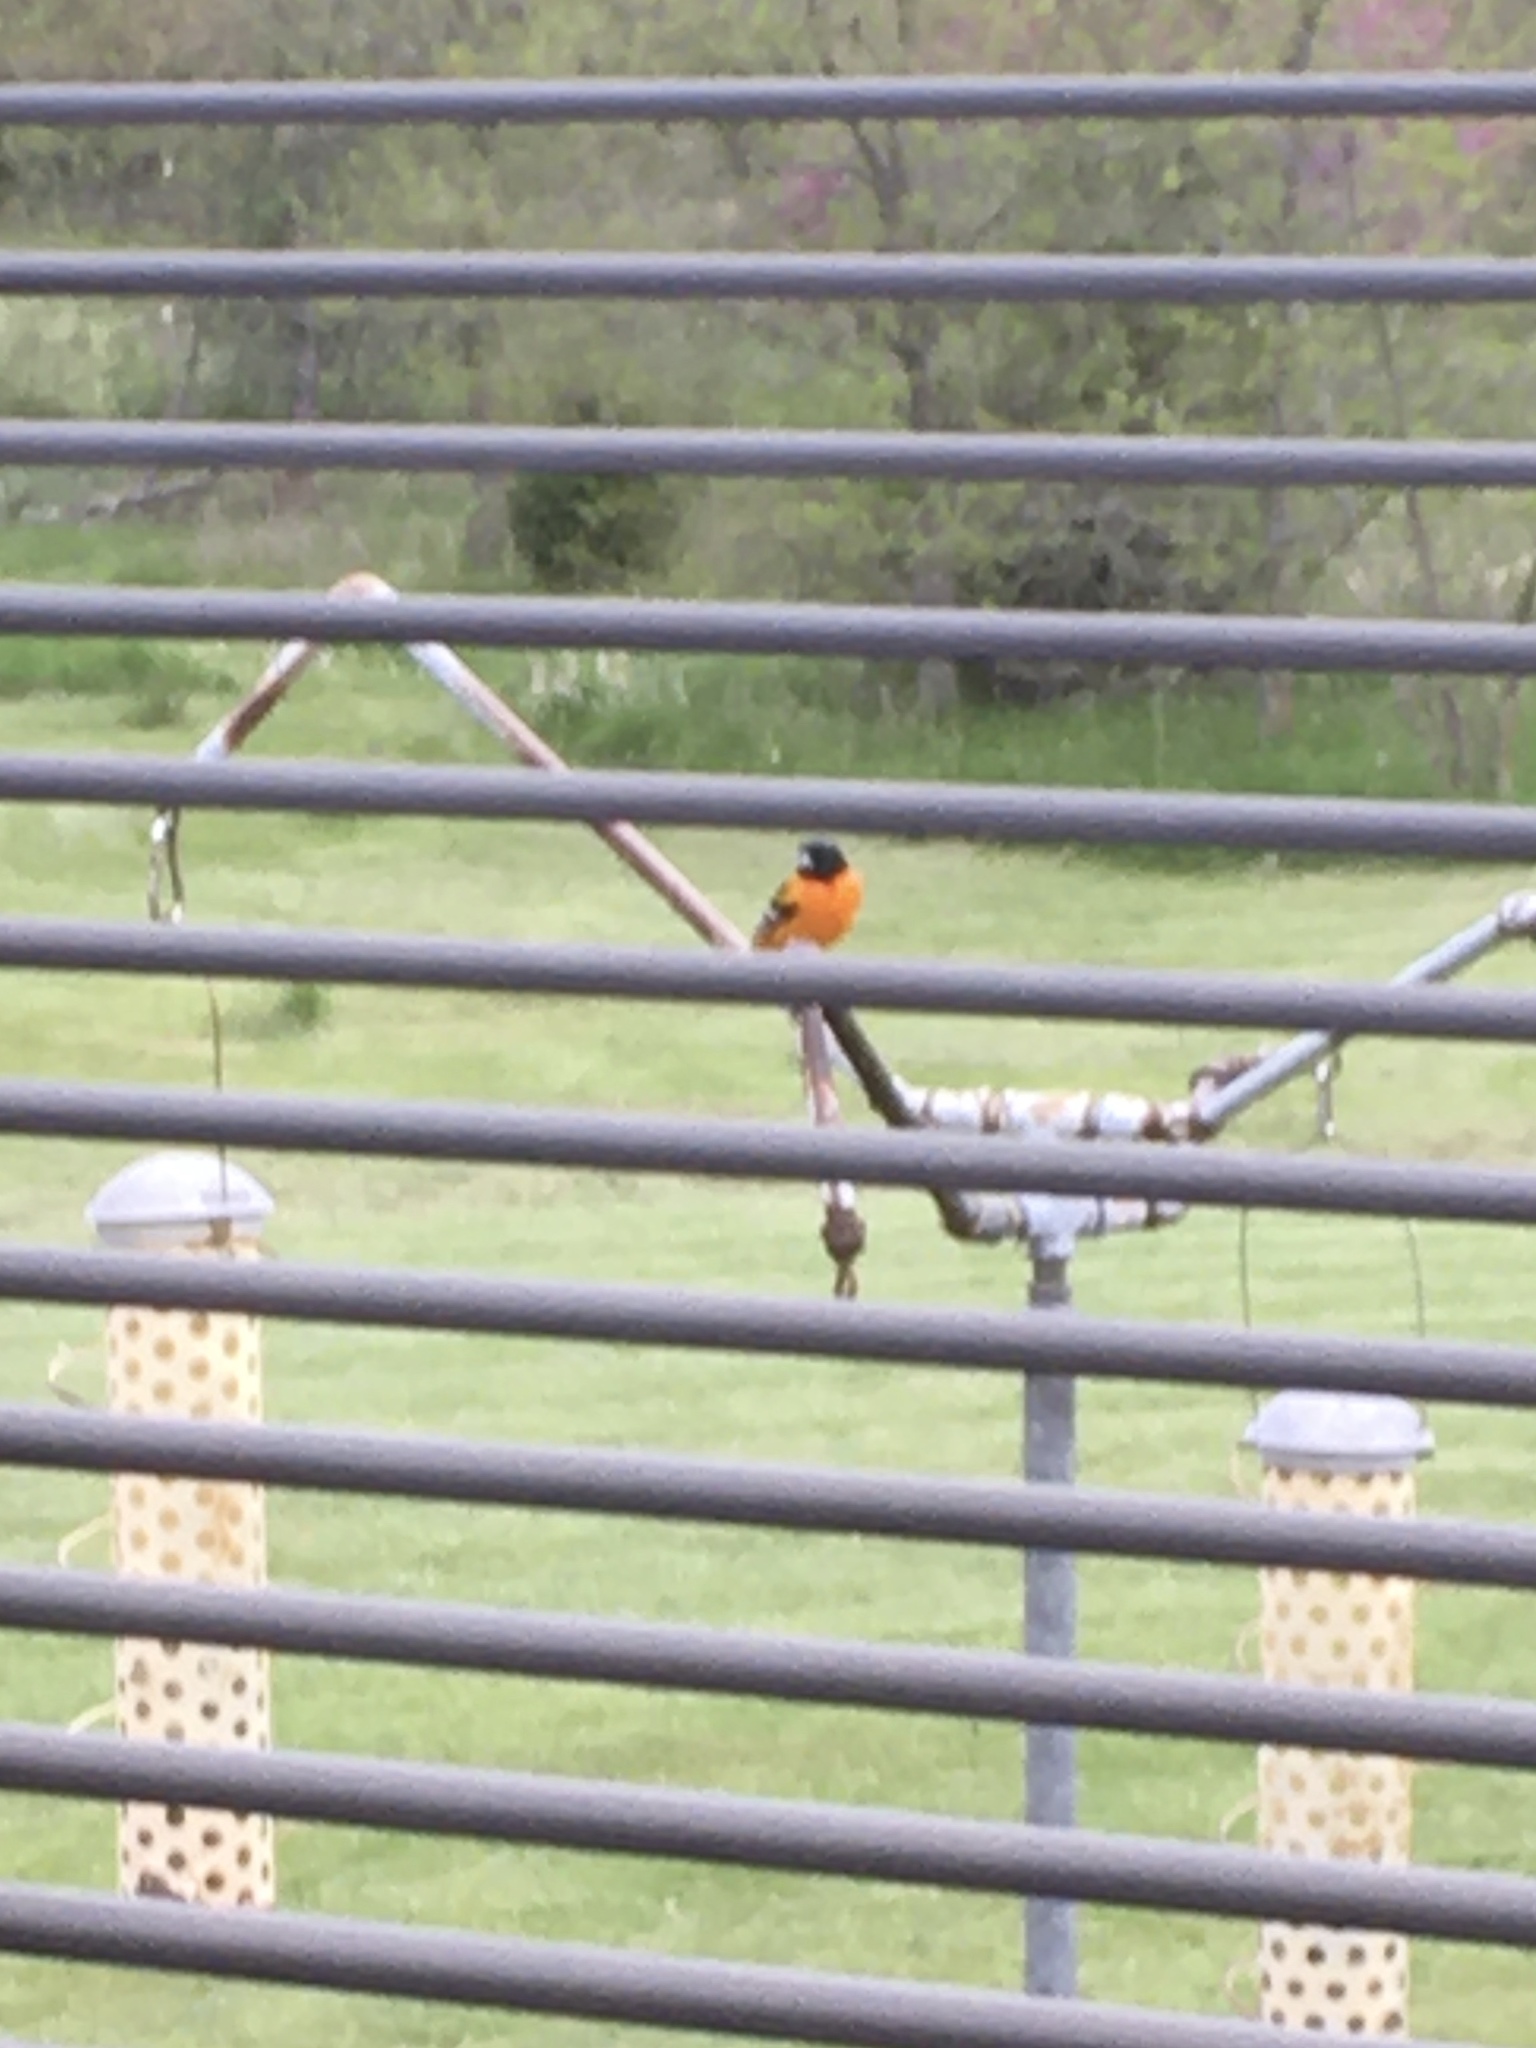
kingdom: Animalia
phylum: Chordata
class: Aves
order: Passeriformes
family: Icteridae
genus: Icterus
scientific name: Icterus galbula
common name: Baltimore oriole
